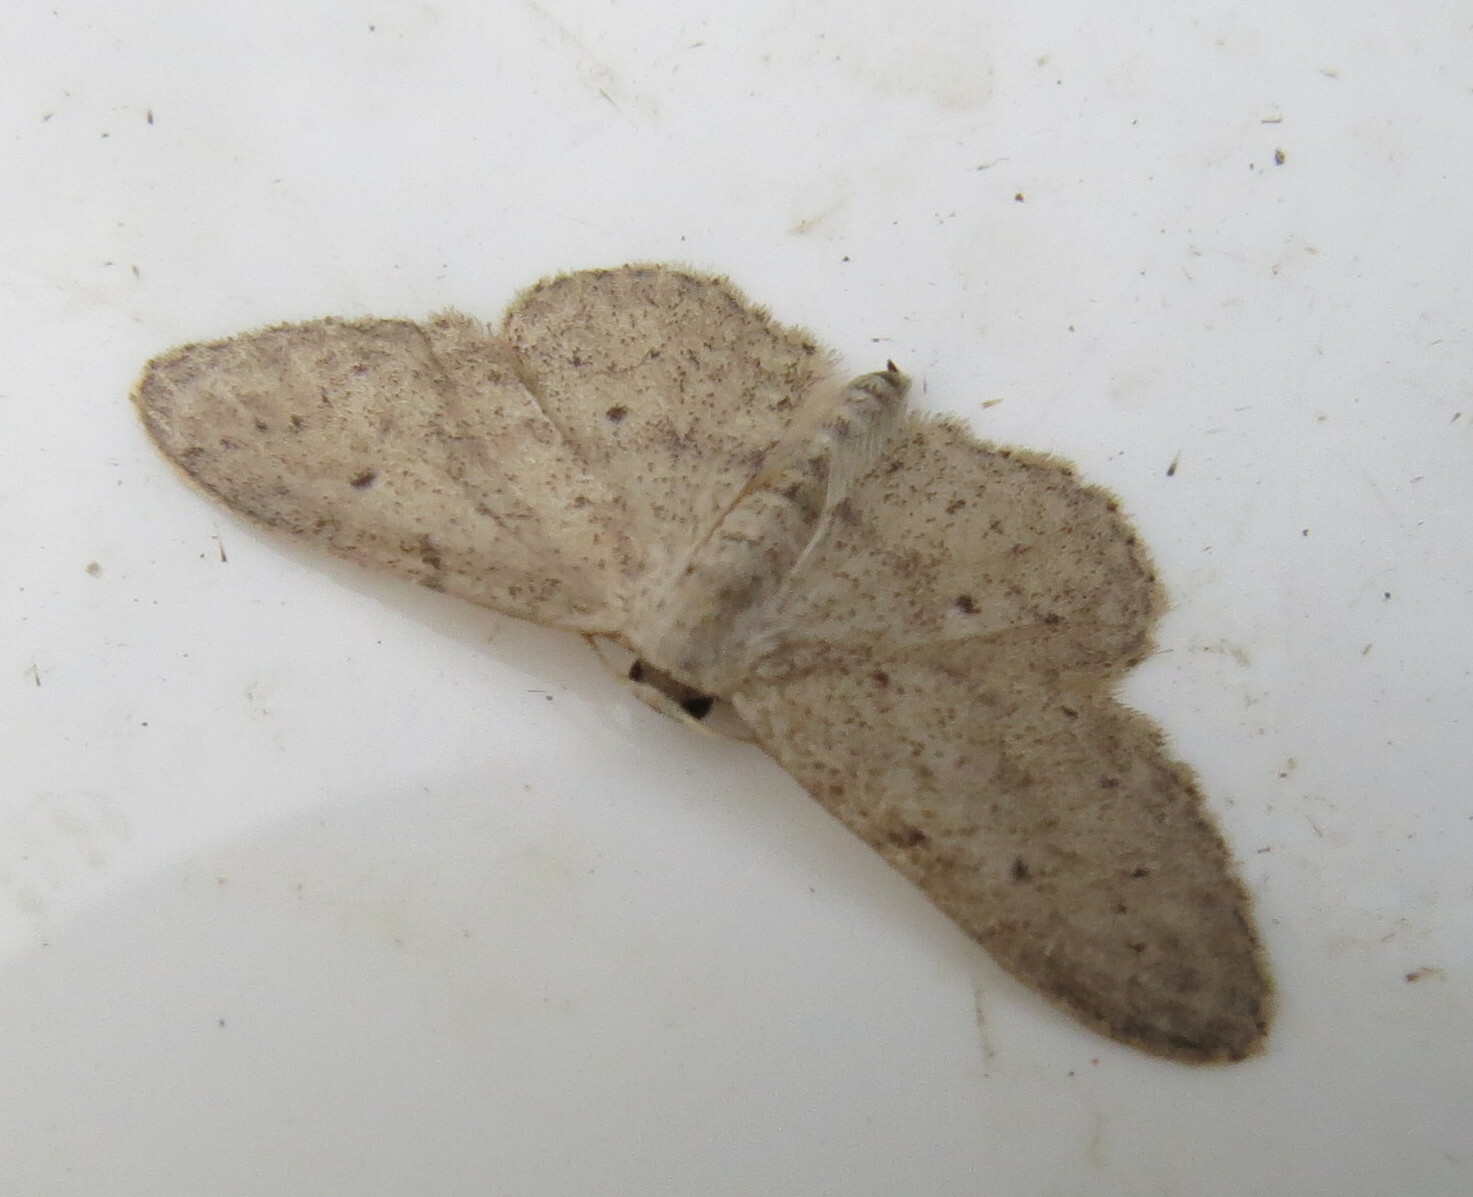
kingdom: Animalia
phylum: Arthropoda
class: Insecta
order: Lepidoptera
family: Geometridae
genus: Idaea
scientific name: Idaea seriata
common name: Small dusty wave
